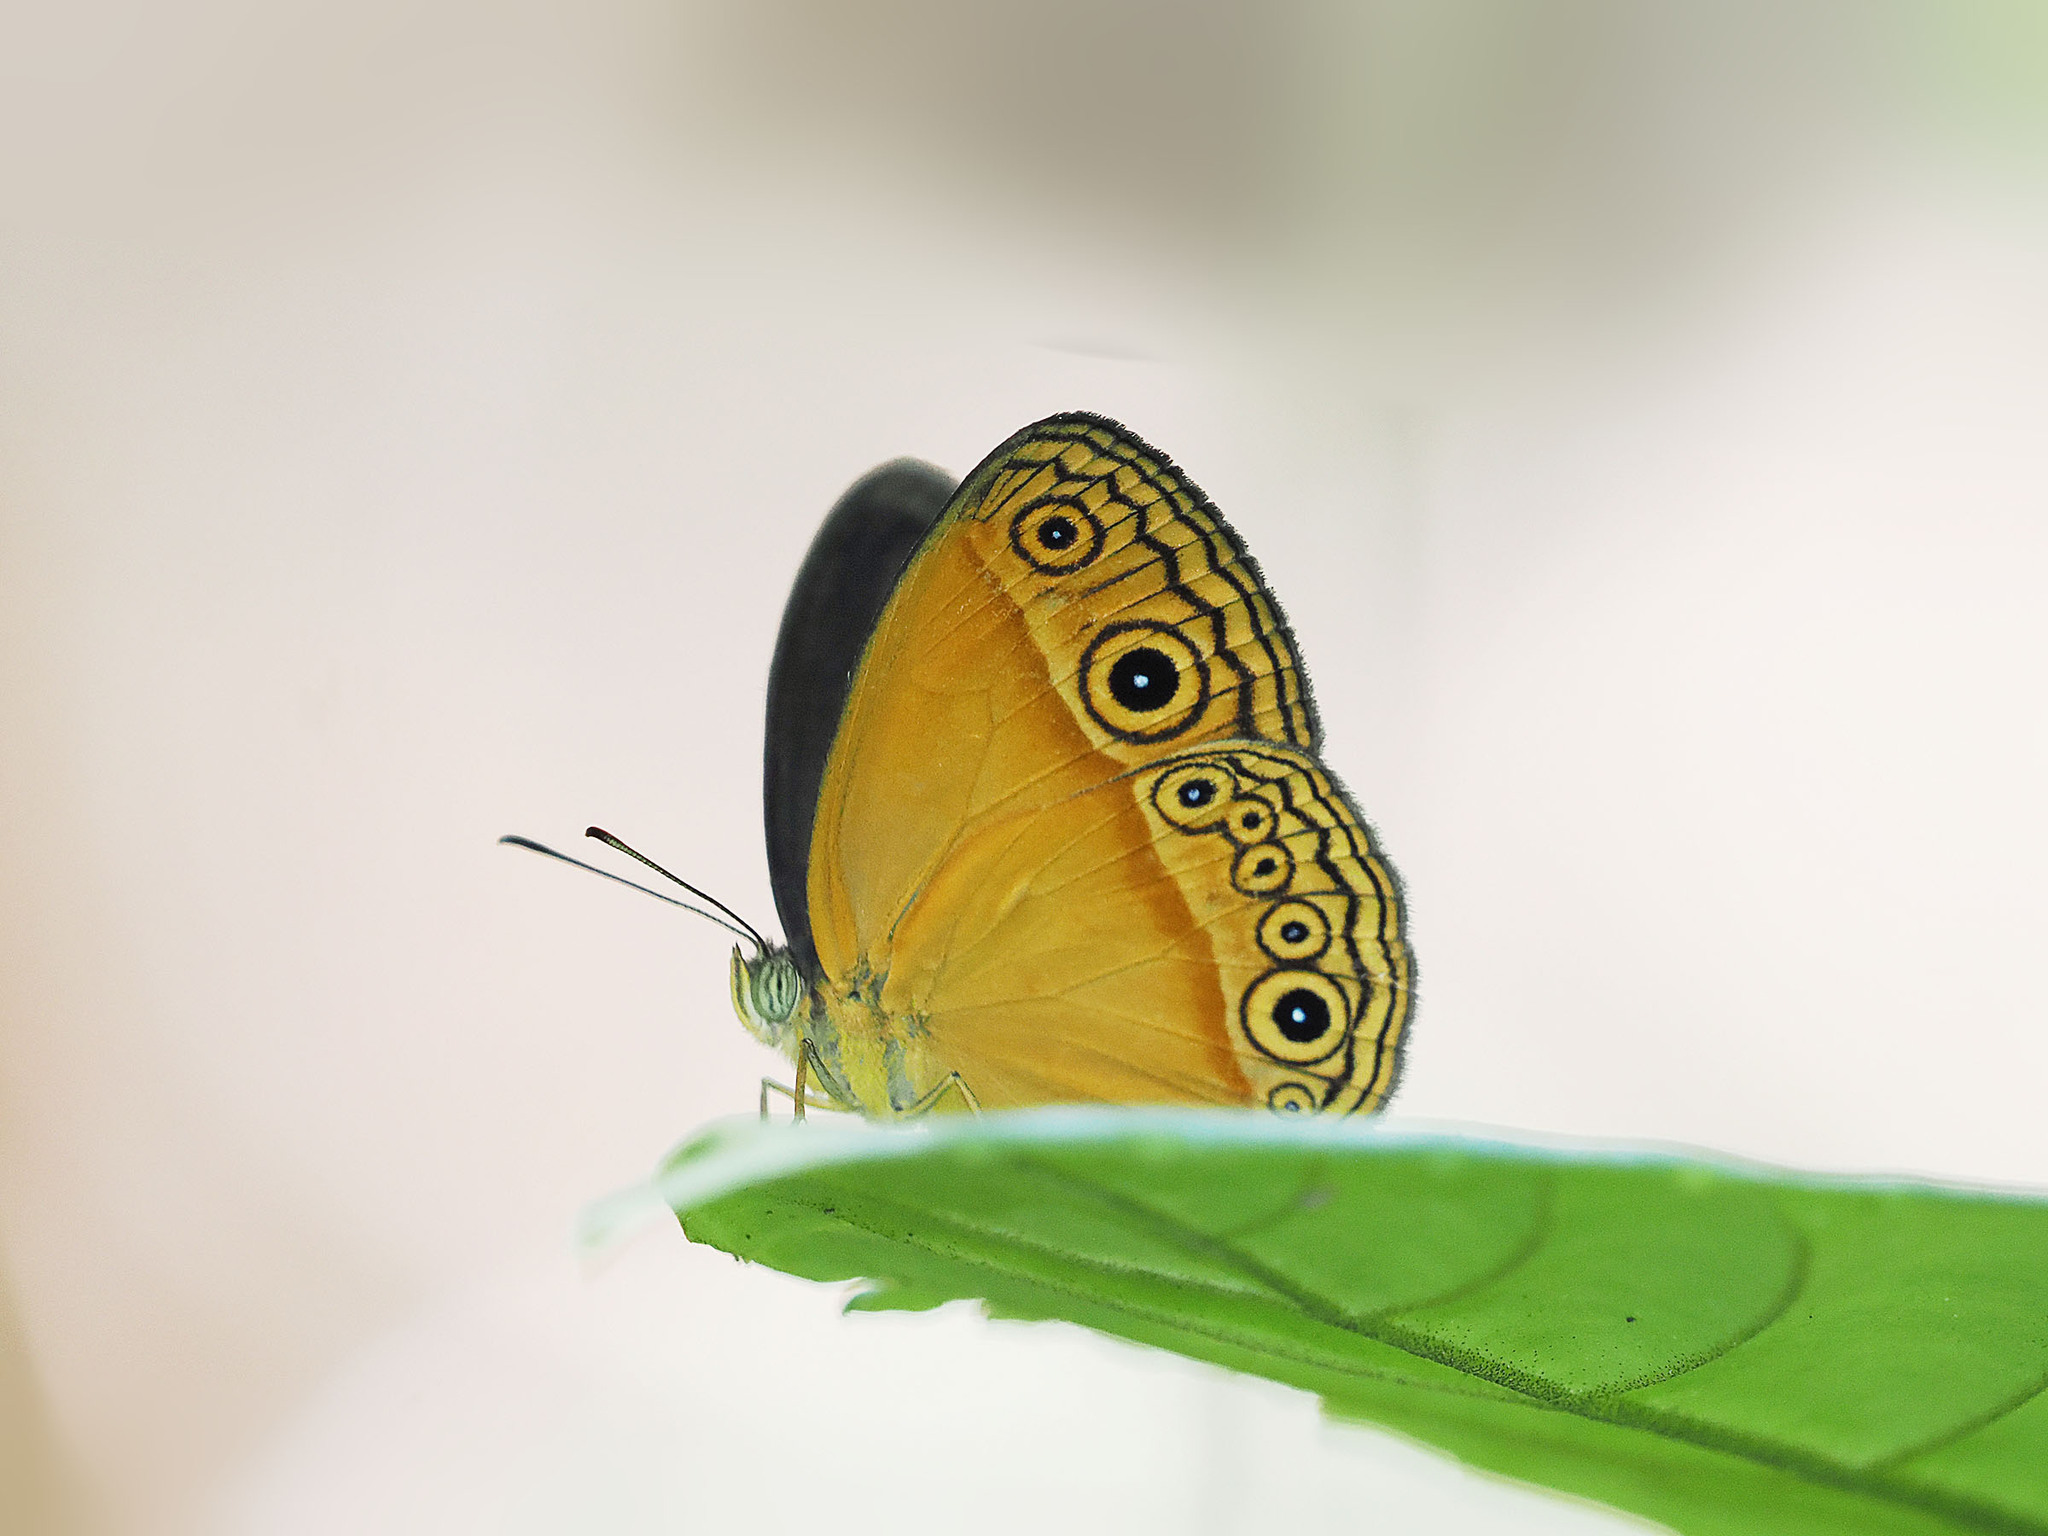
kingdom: Animalia
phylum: Arthropoda
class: Insecta
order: Lepidoptera
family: Nymphalidae
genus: Mycalesis
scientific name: Mycalesis phidon
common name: Hewitson's bushbrown
